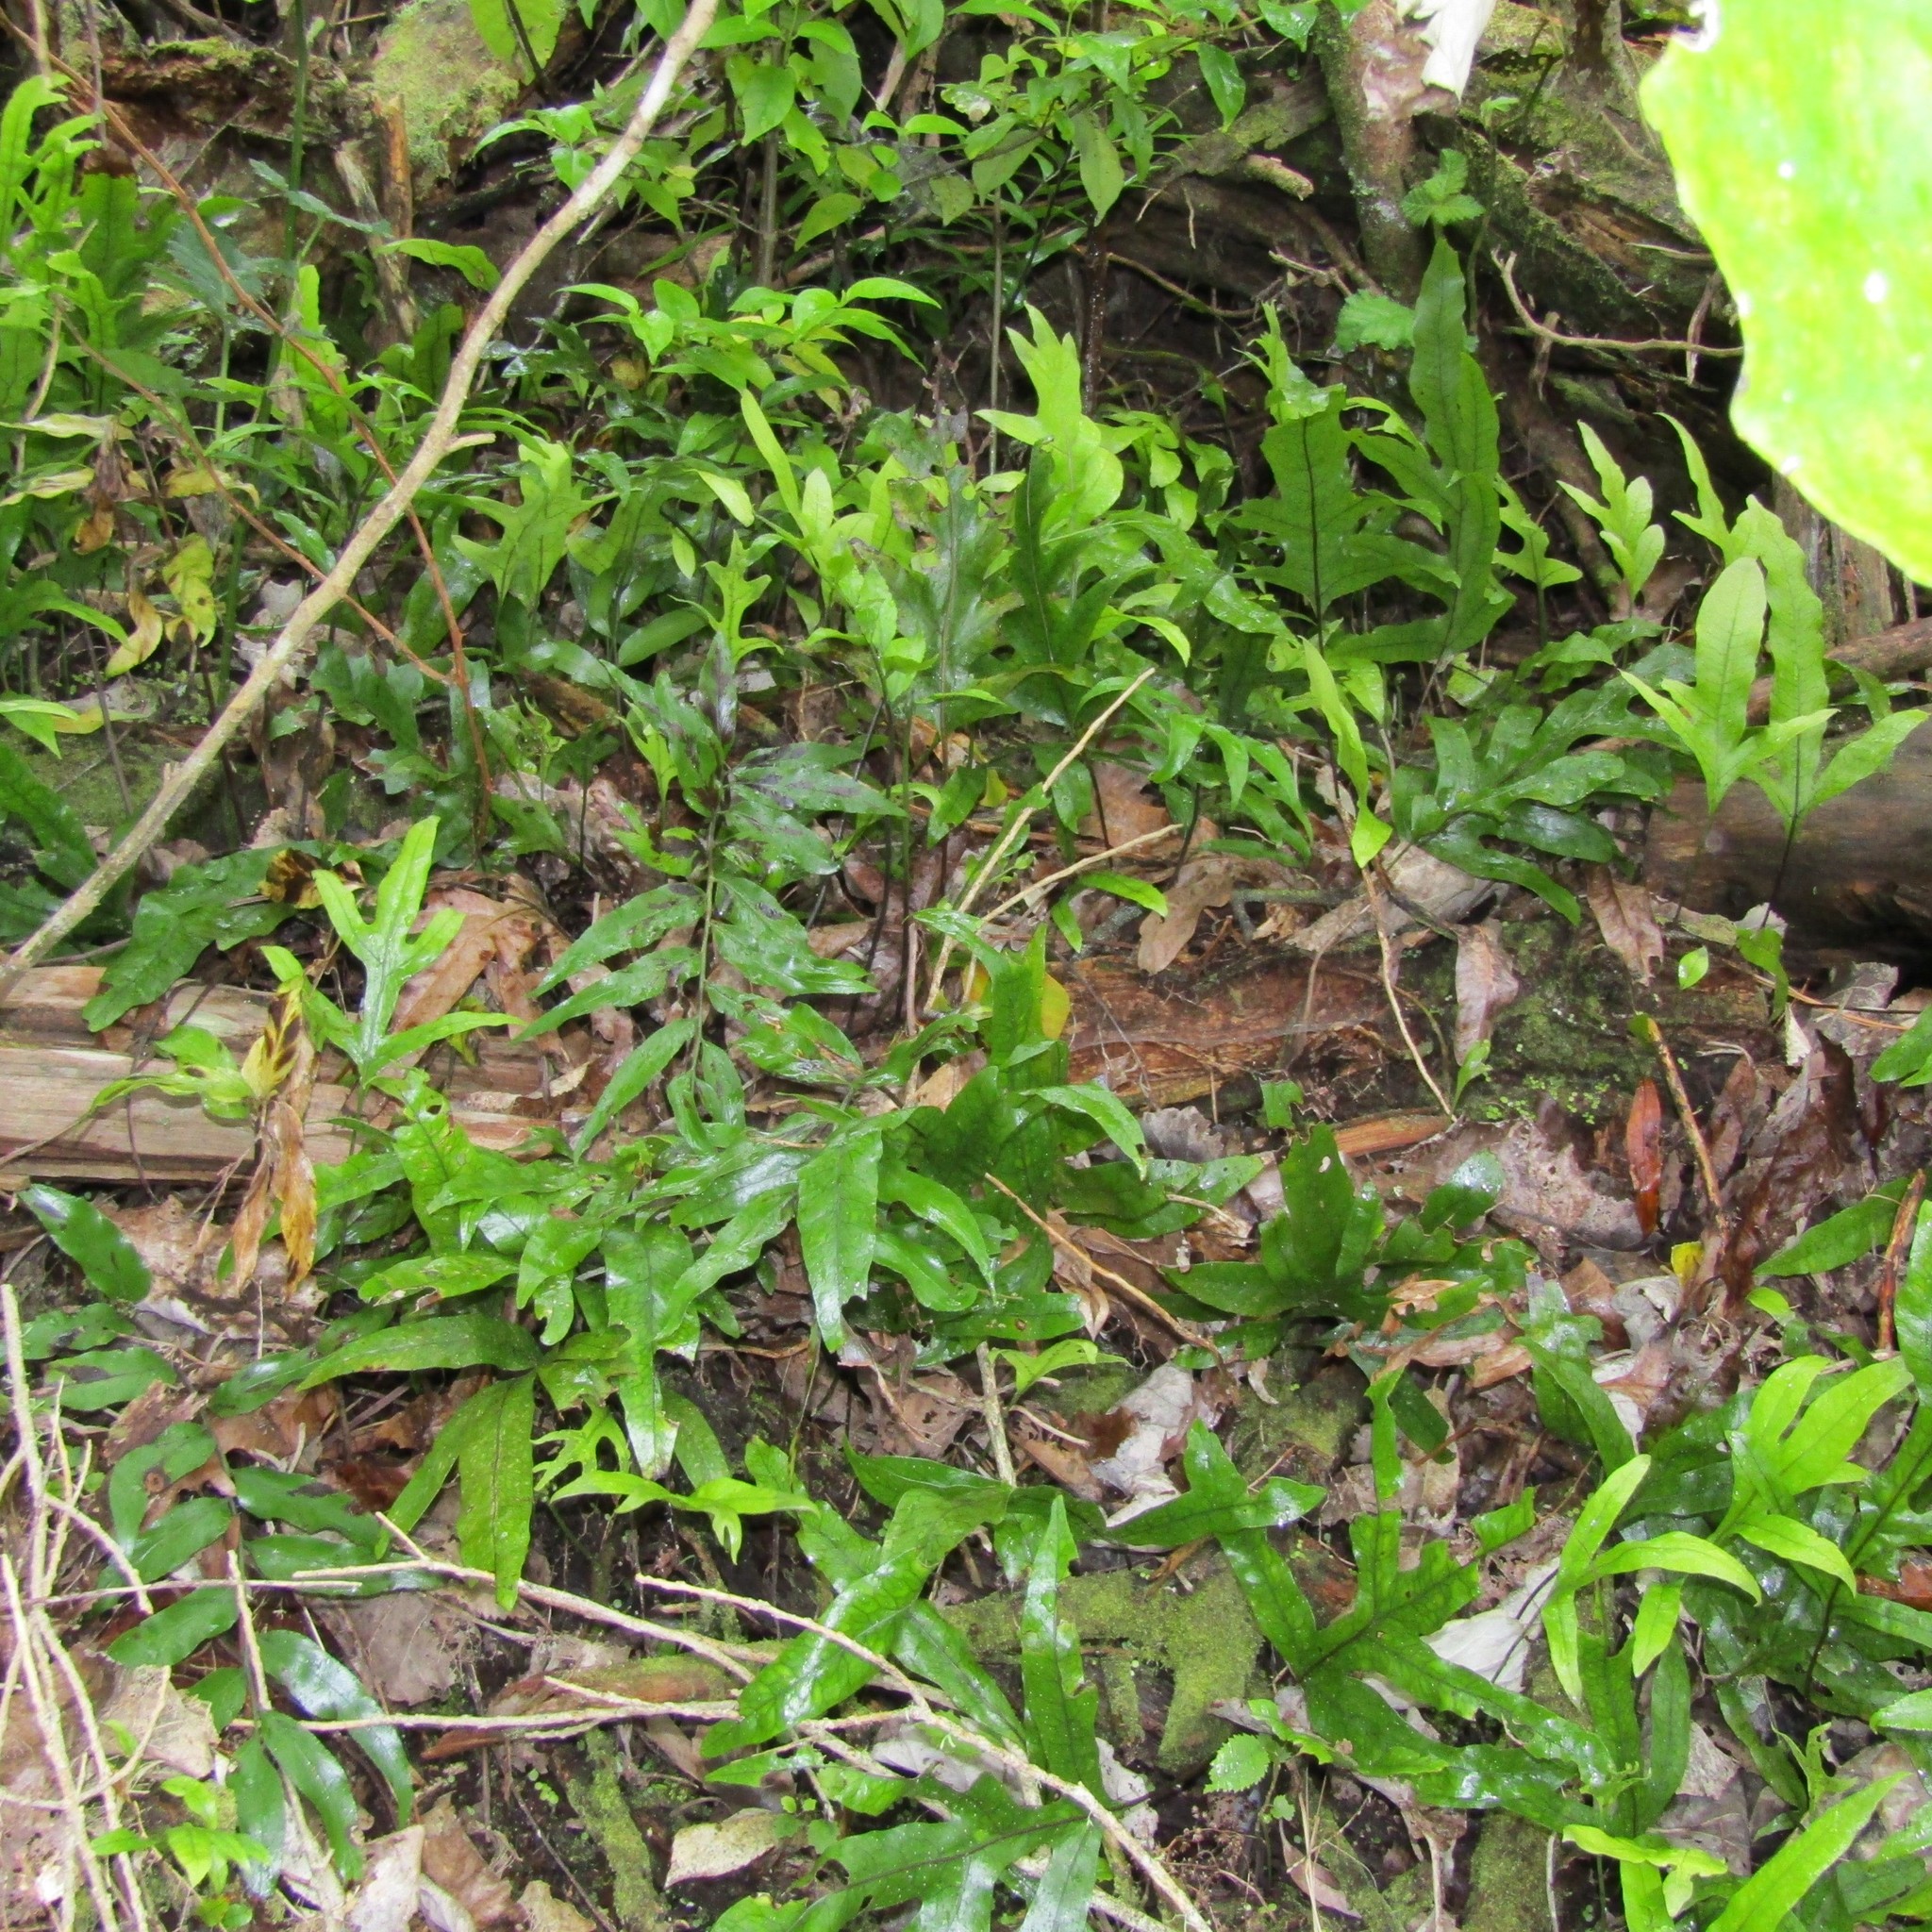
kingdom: Plantae
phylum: Tracheophyta
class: Polypodiopsida
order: Polypodiales
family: Polypodiaceae
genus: Lecanopteris
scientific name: Lecanopteris pustulata
